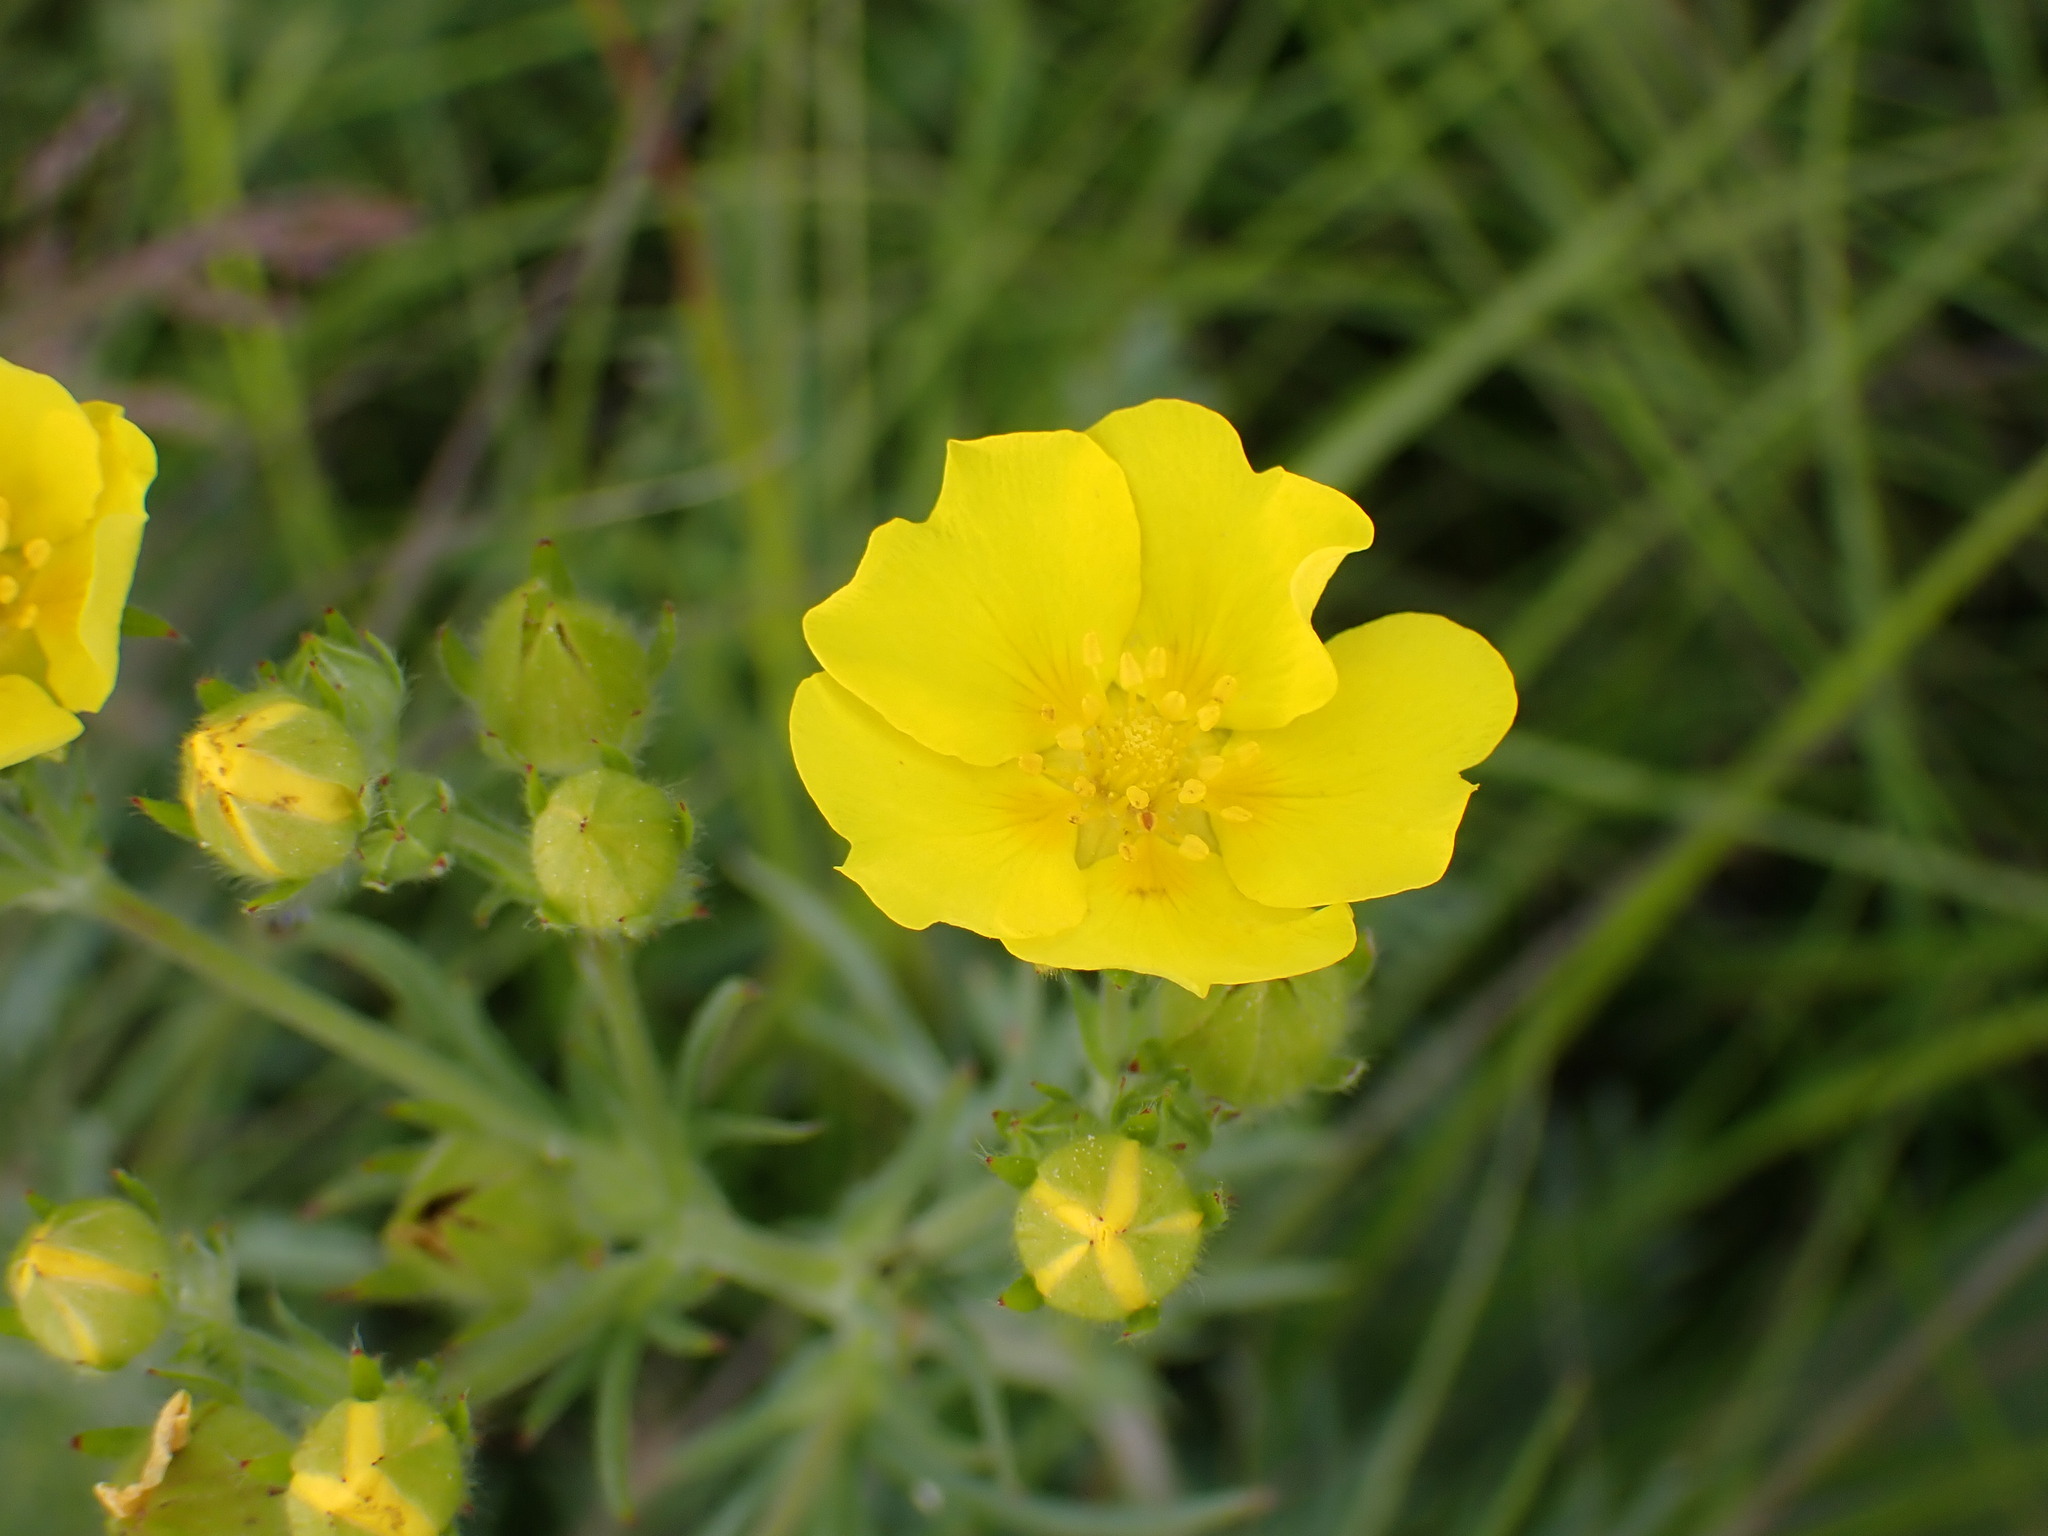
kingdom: Plantae
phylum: Tracheophyta
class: Magnoliopsida
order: Rosales
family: Rosaceae
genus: Potentilla
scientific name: Potentilla gracilis
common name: Graceful cinquefoil
